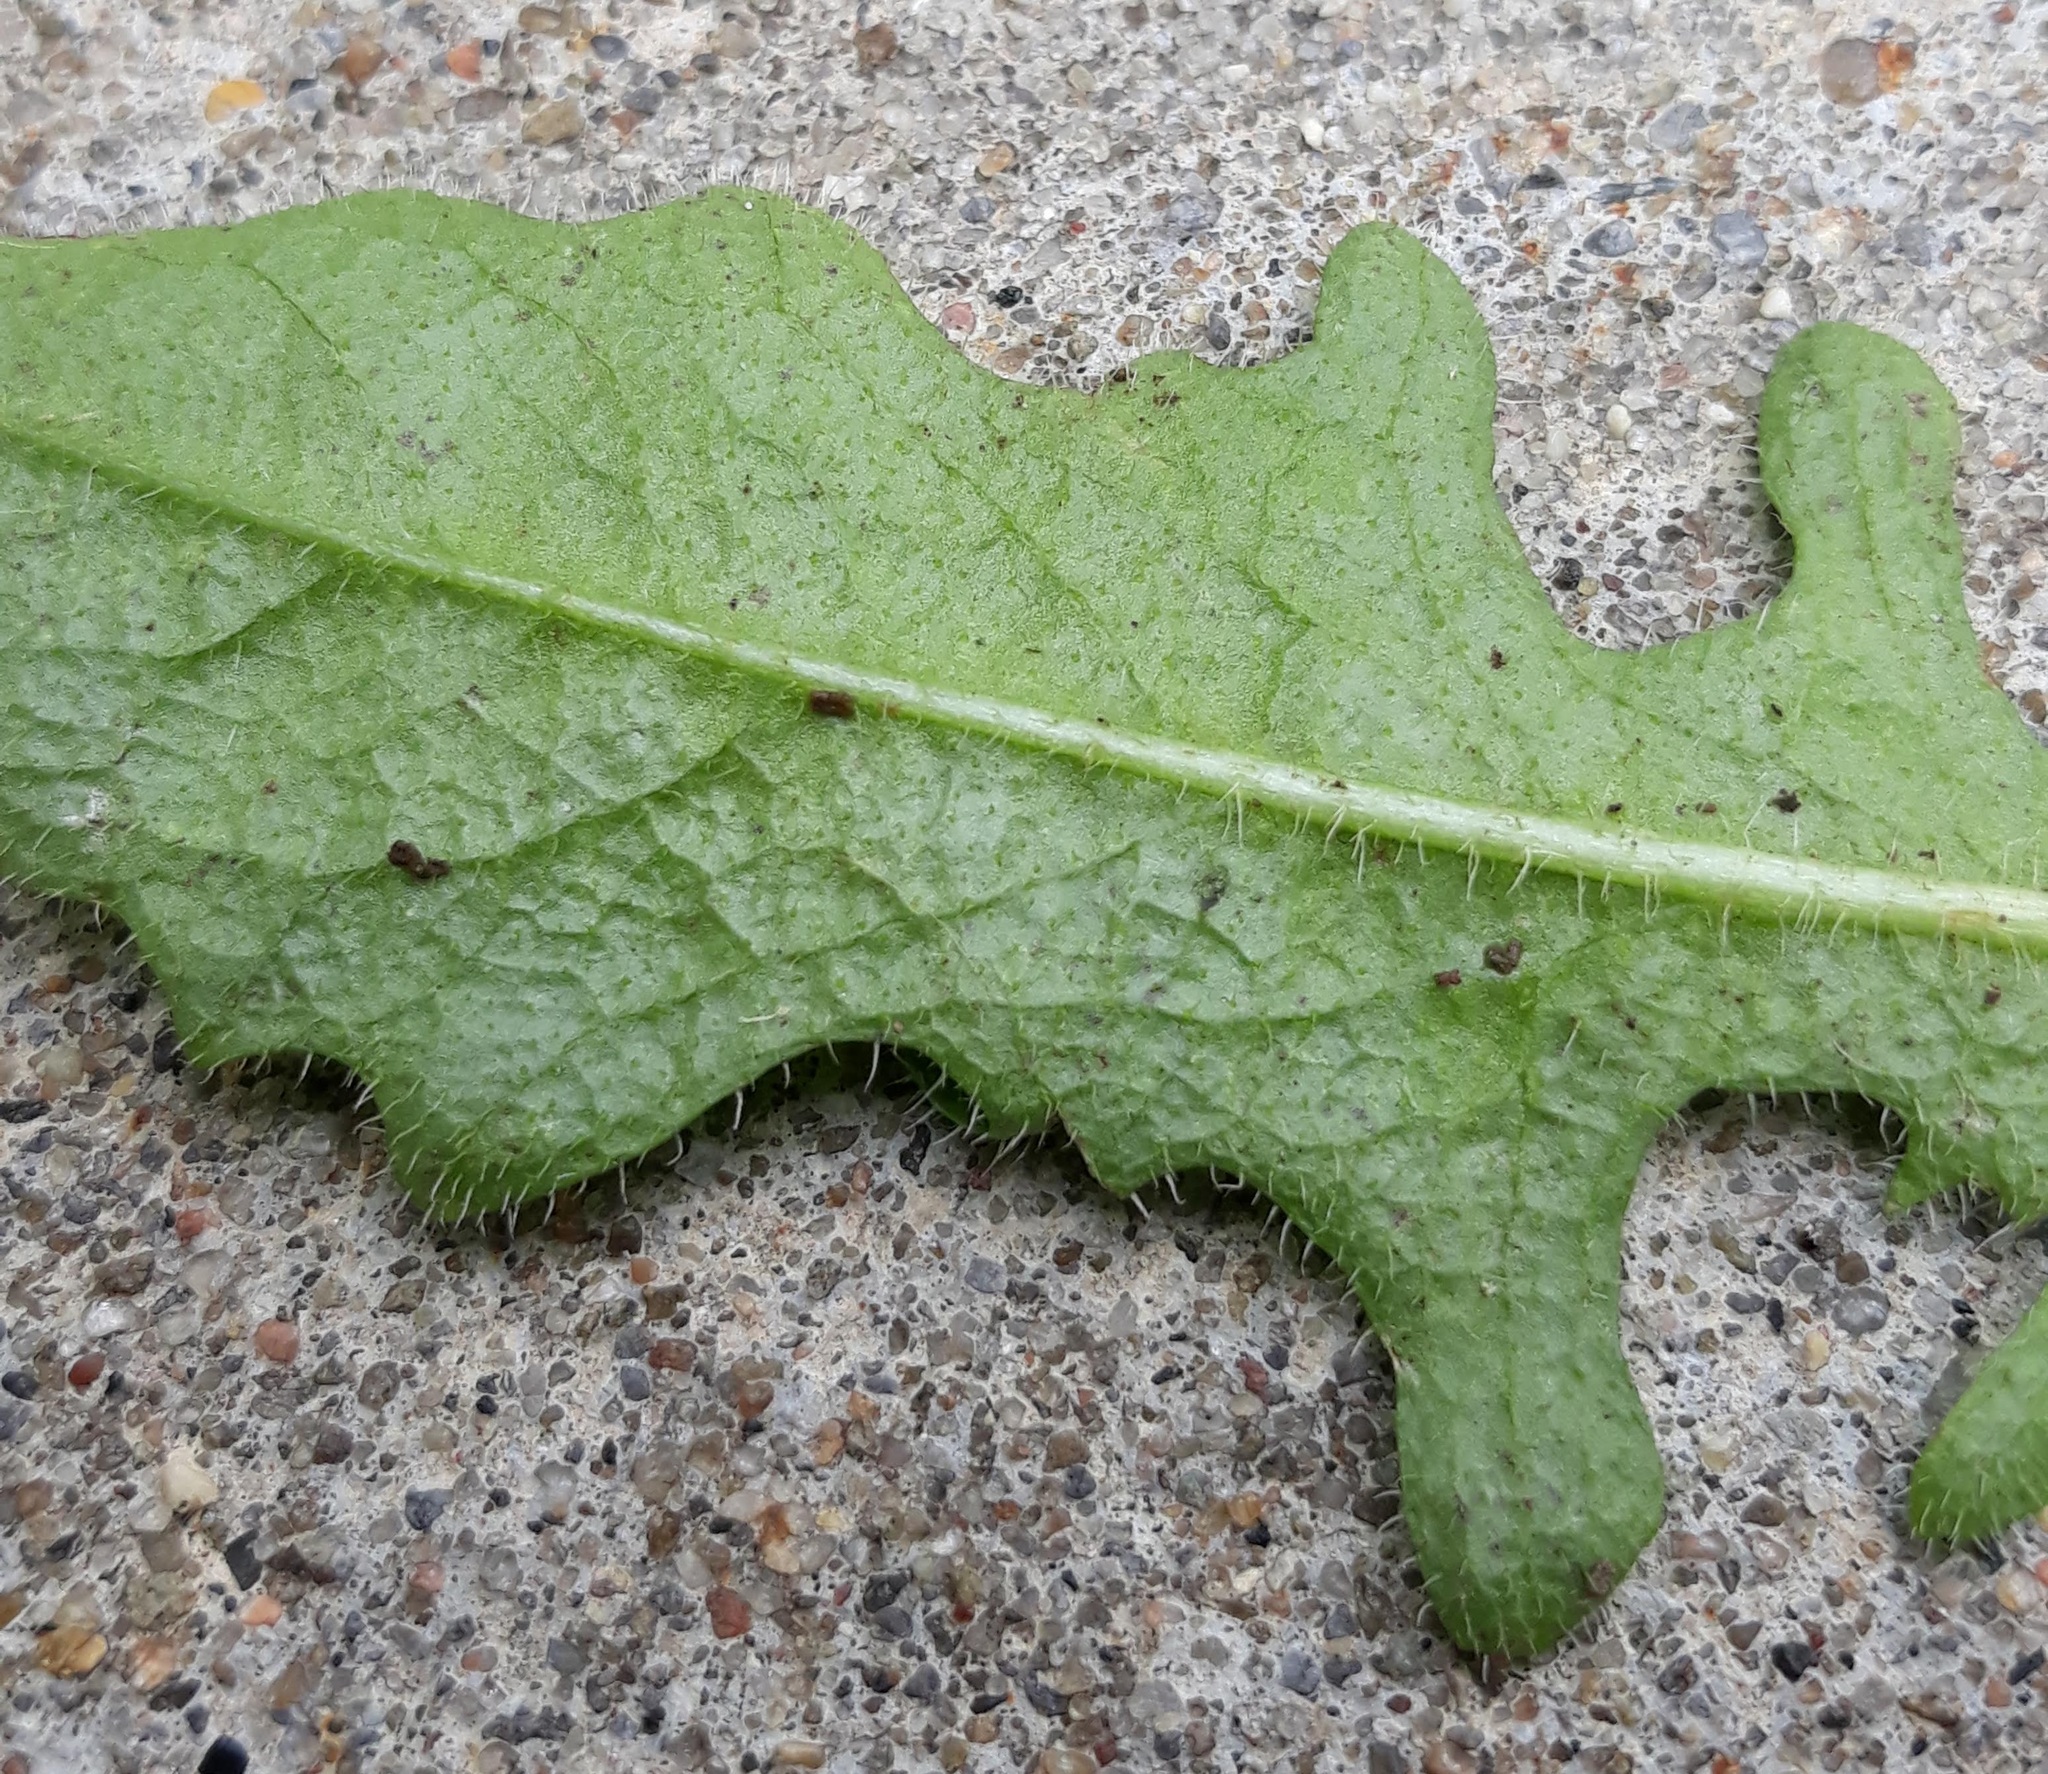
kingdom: Plantae
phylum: Tracheophyta
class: Magnoliopsida
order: Asterales
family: Asteraceae
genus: Scorzoneroides
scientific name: Scorzoneroides autumnalis
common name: Autumn hawkbit
